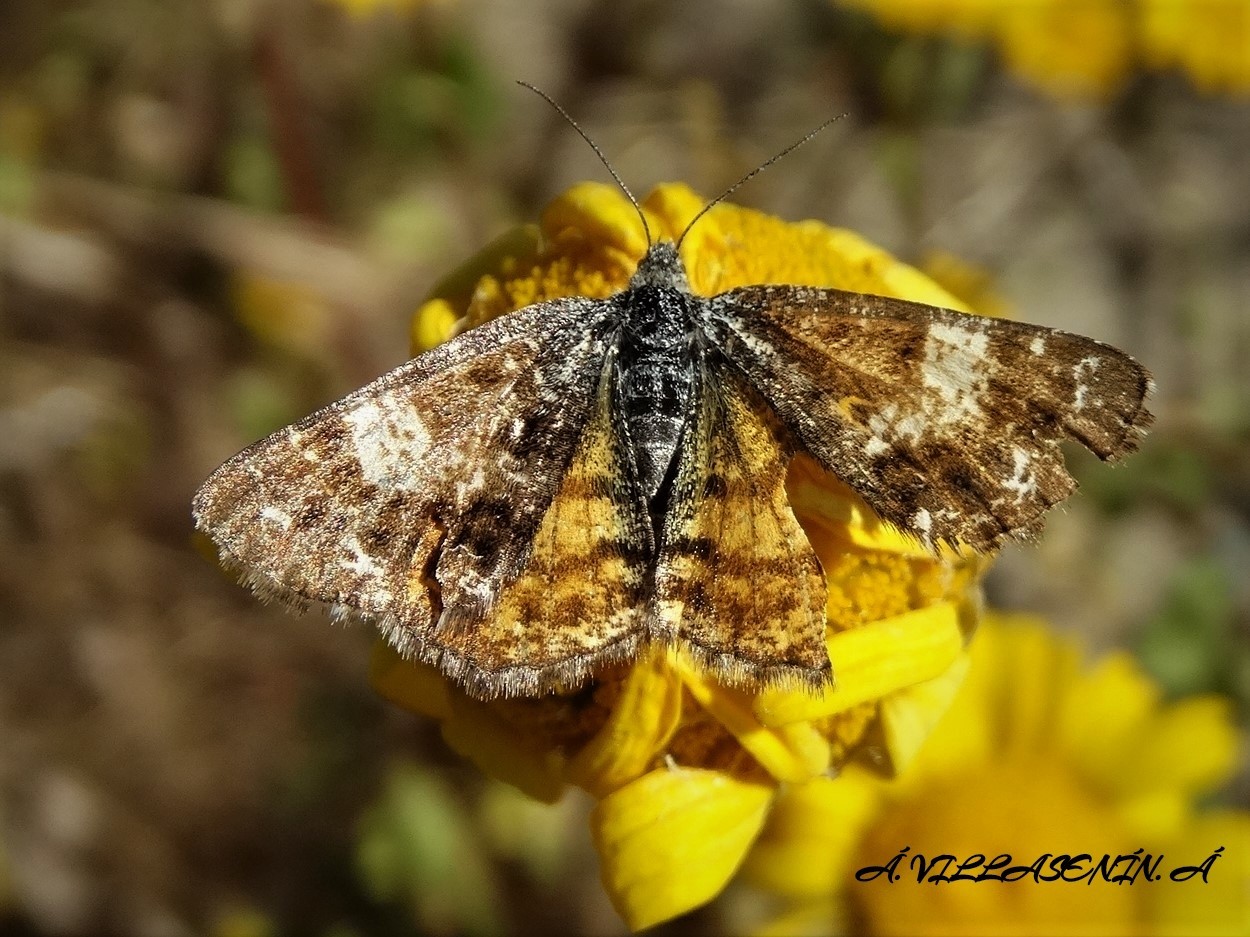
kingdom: Animalia
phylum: Arthropoda
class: Insecta
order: Lepidoptera
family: Geometridae
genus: Isturgia
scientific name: Isturgia famula
